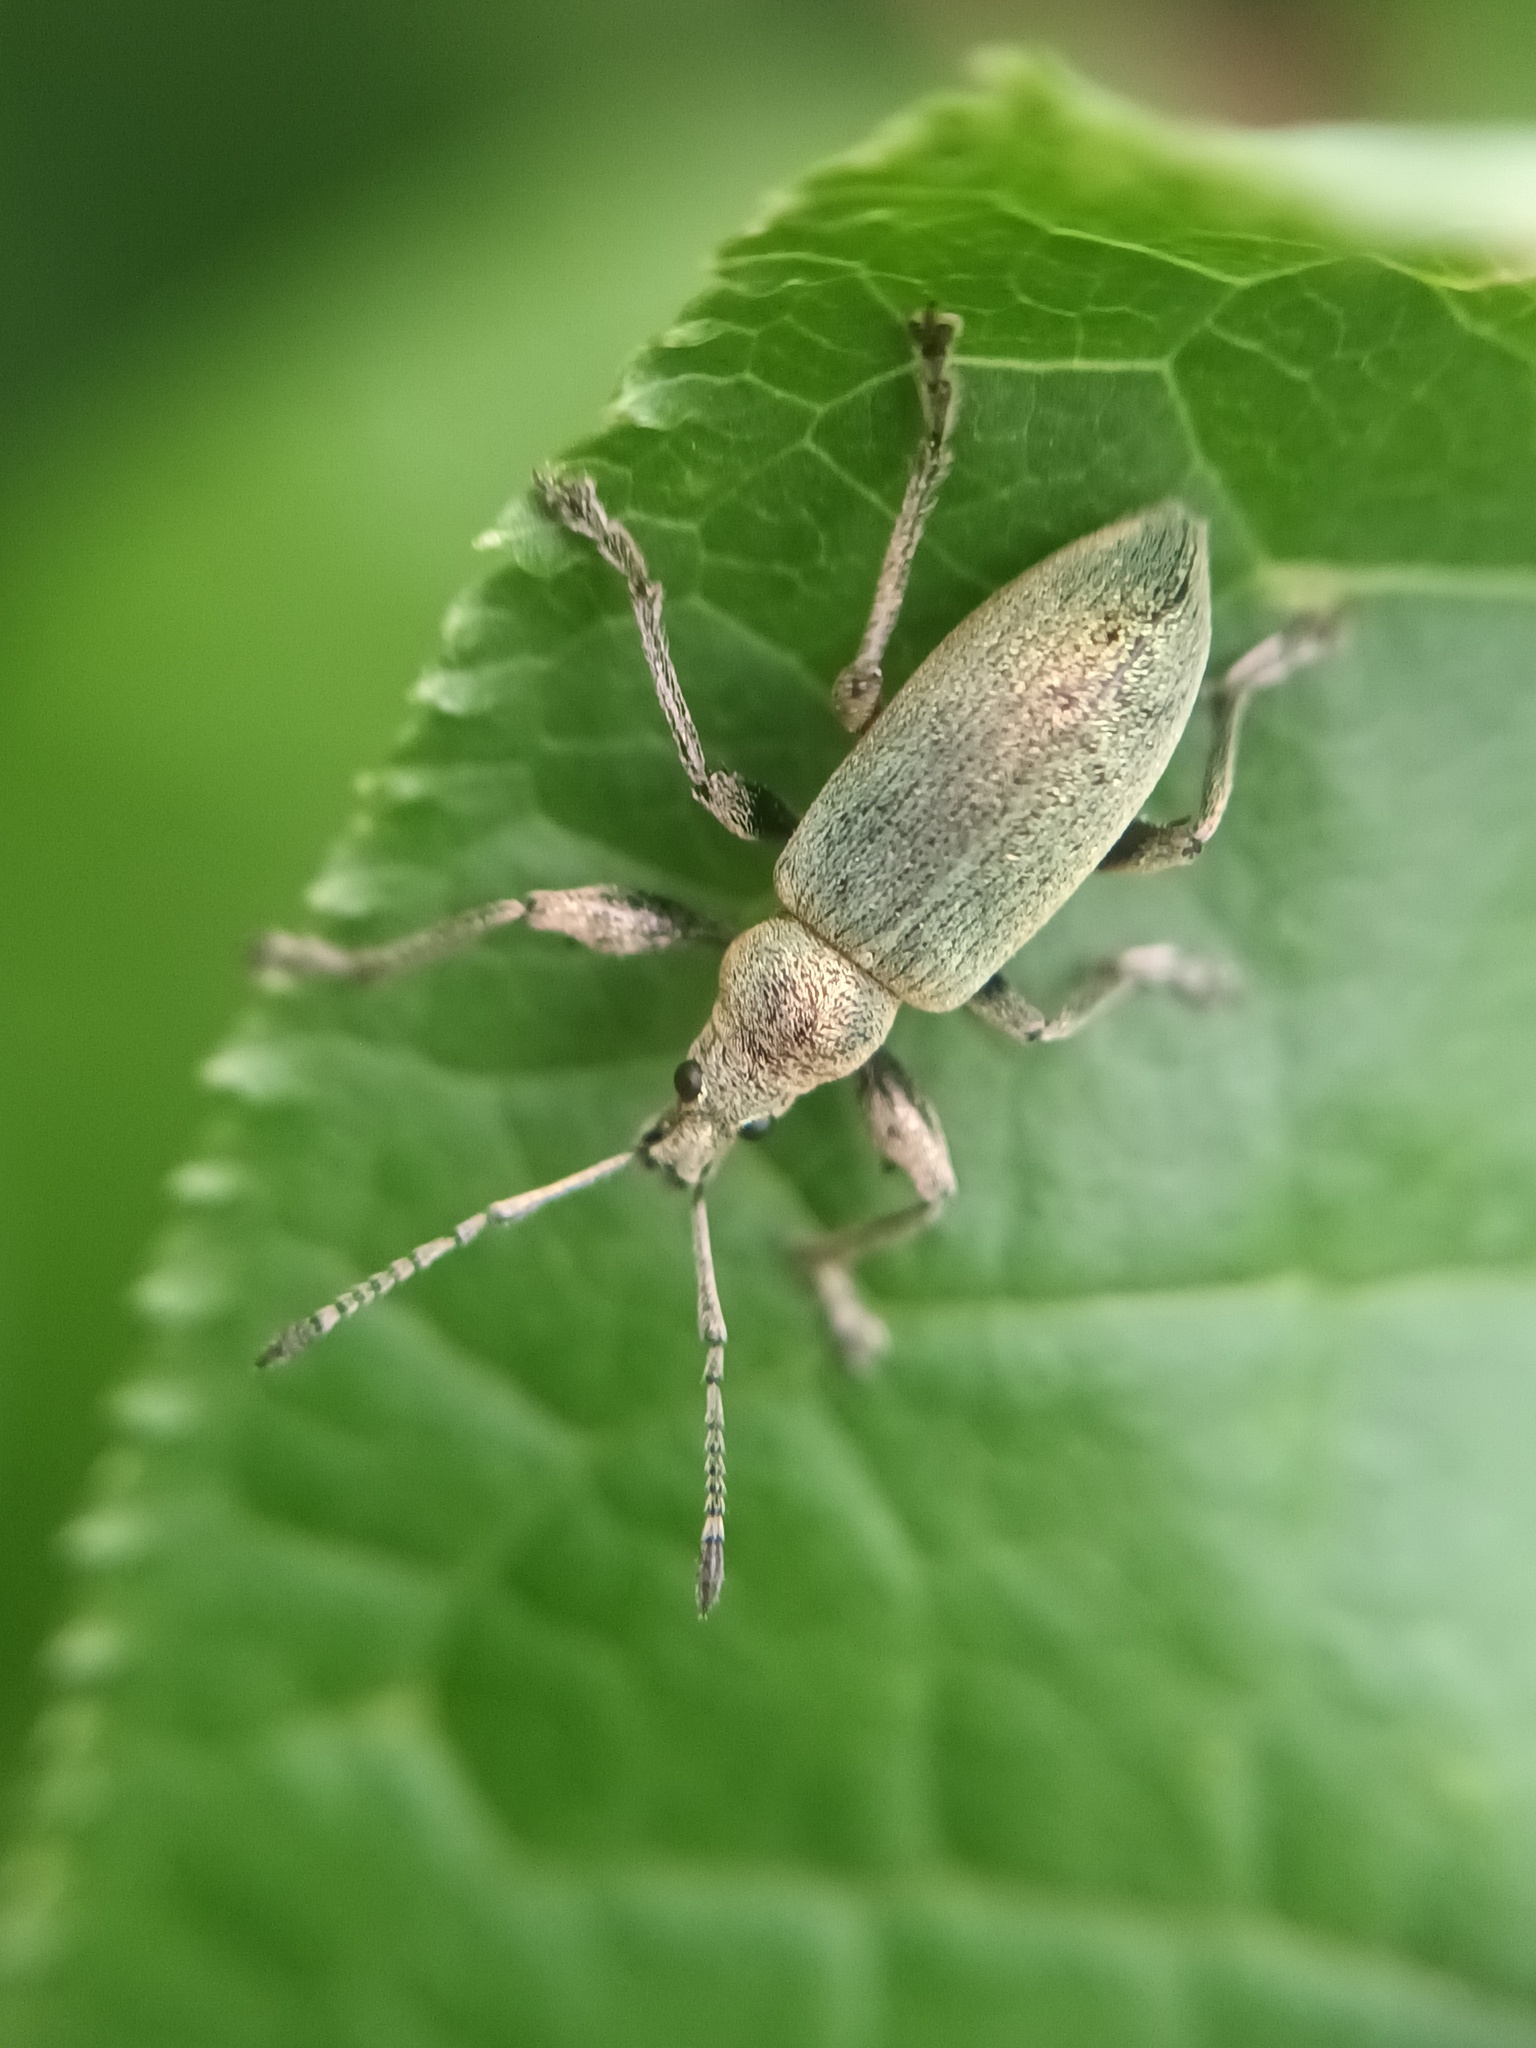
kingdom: Animalia
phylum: Arthropoda
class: Insecta
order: Coleoptera
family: Curculionidae
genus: Phyllobius
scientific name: Phyllobius pomaceus
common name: Green nettle weevil
